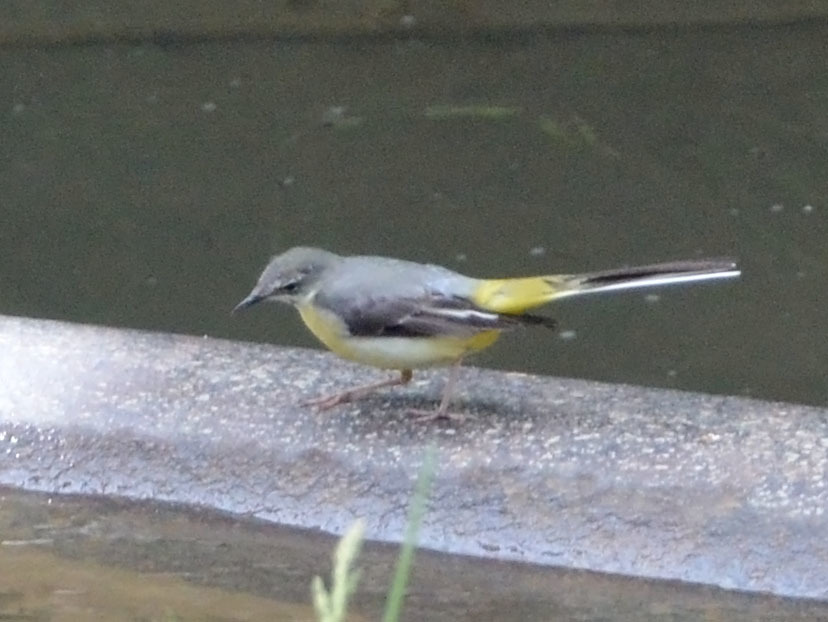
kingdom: Animalia
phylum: Chordata
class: Aves
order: Passeriformes
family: Motacillidae
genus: Motacilla
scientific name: Motacilla cinerea
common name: Grey wagtail
